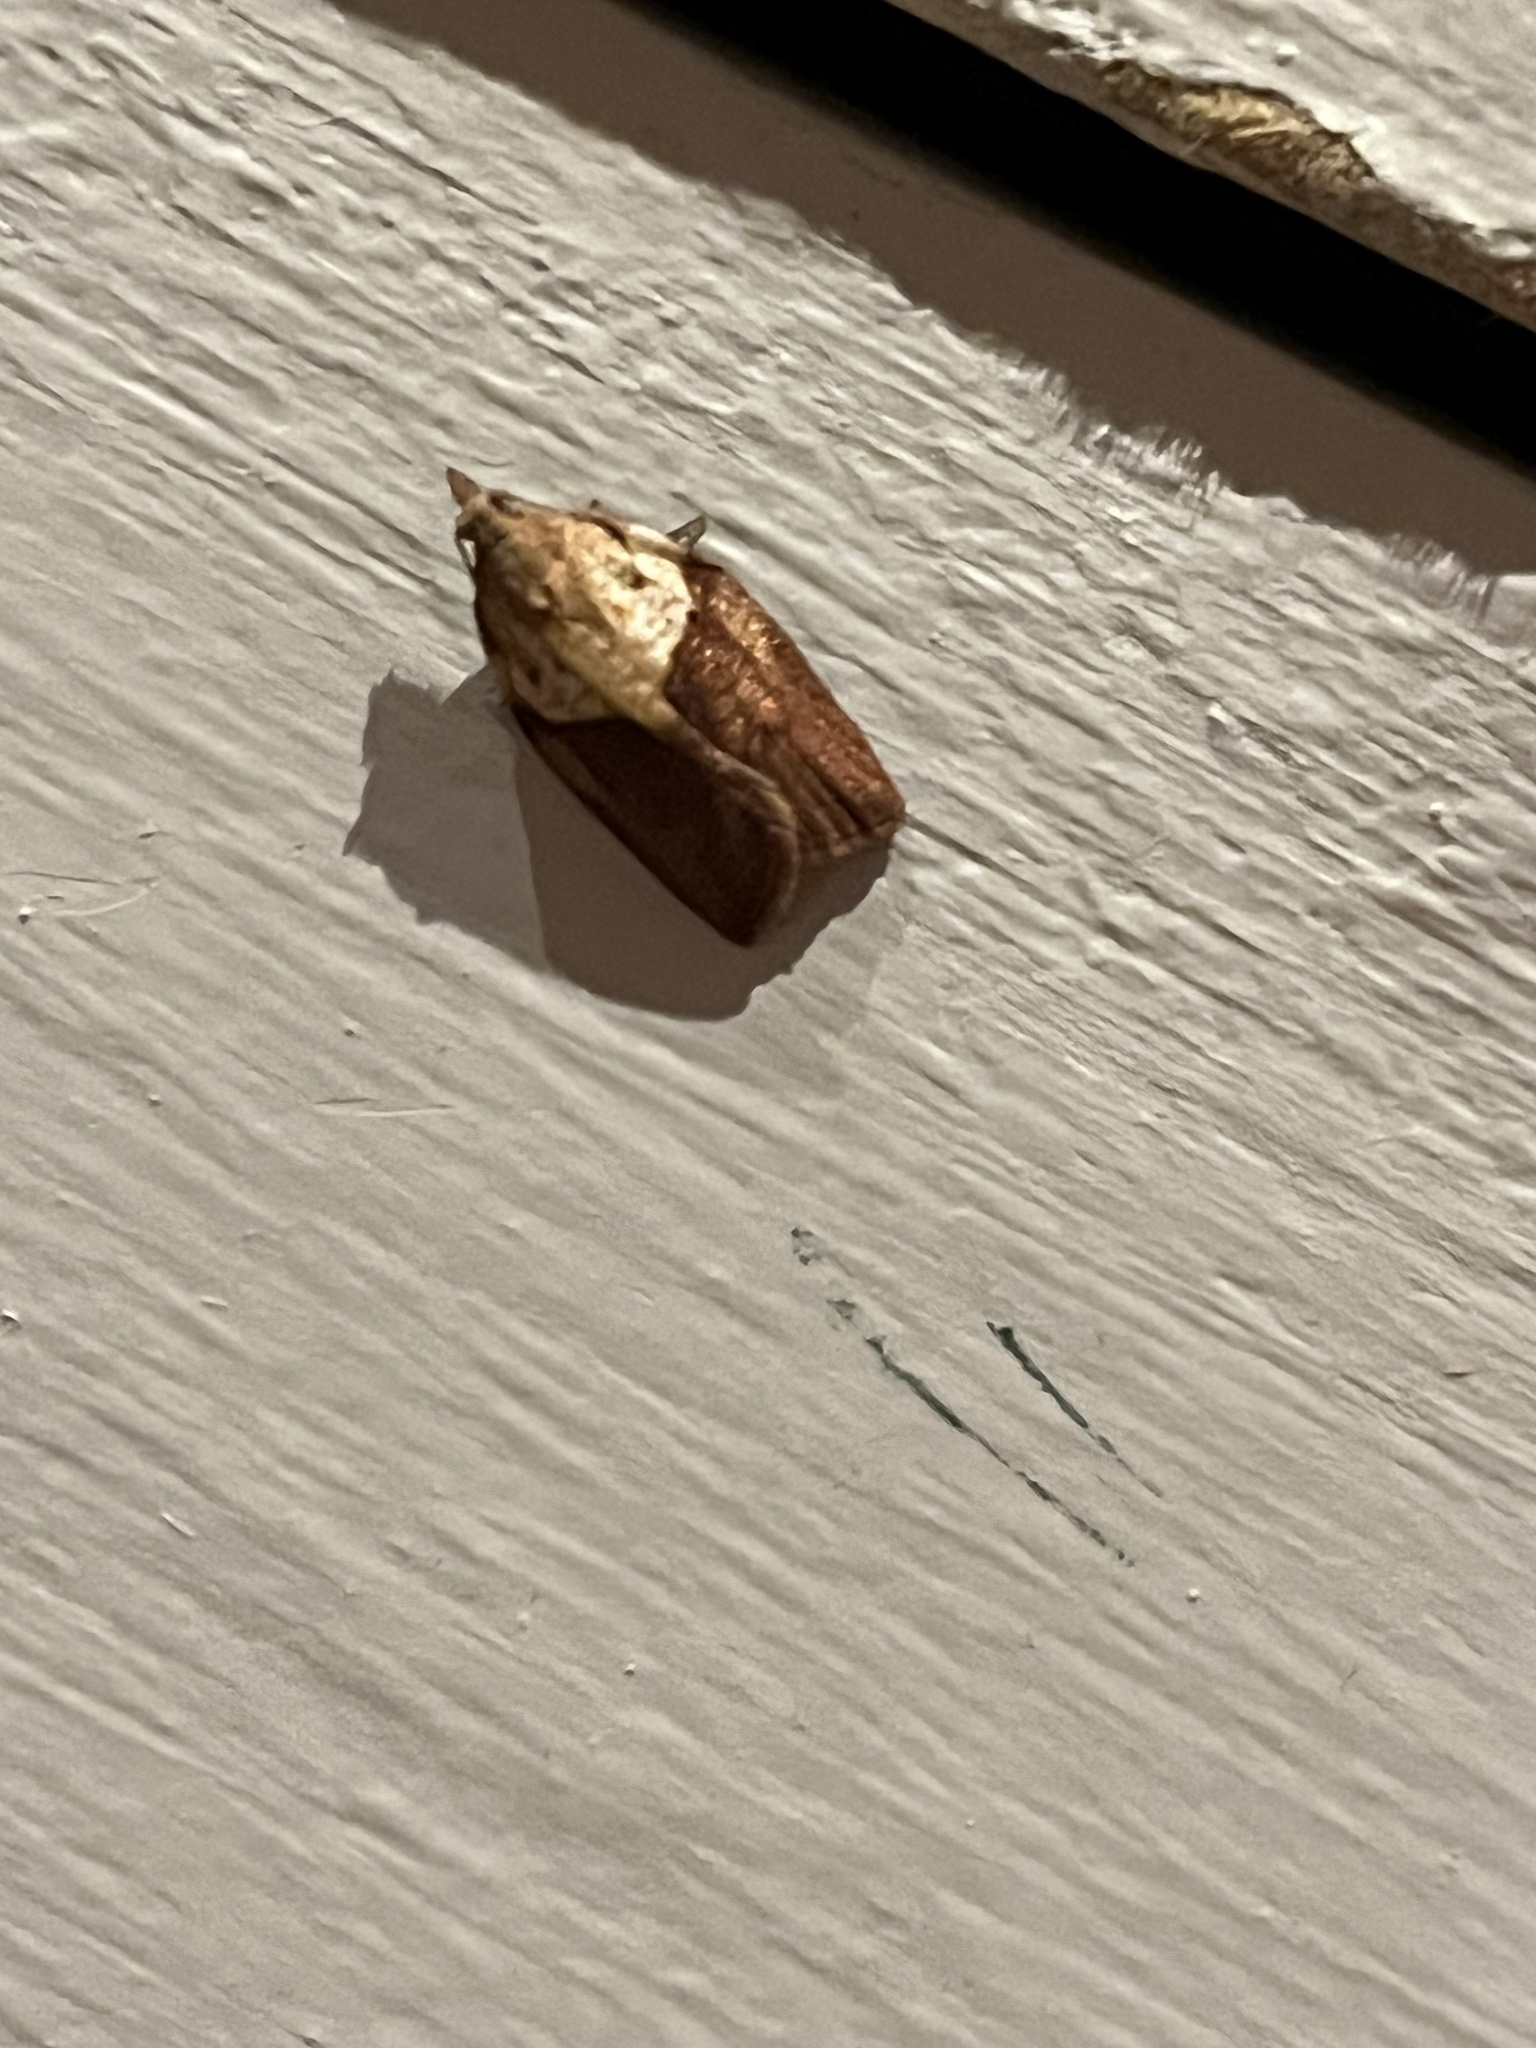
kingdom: Animalia
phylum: Arthropoda
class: Insecta
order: Lepidoptera
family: Tortricidae
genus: Epiphyas
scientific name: Epiphyas postvittana
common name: Light brown apple moth
